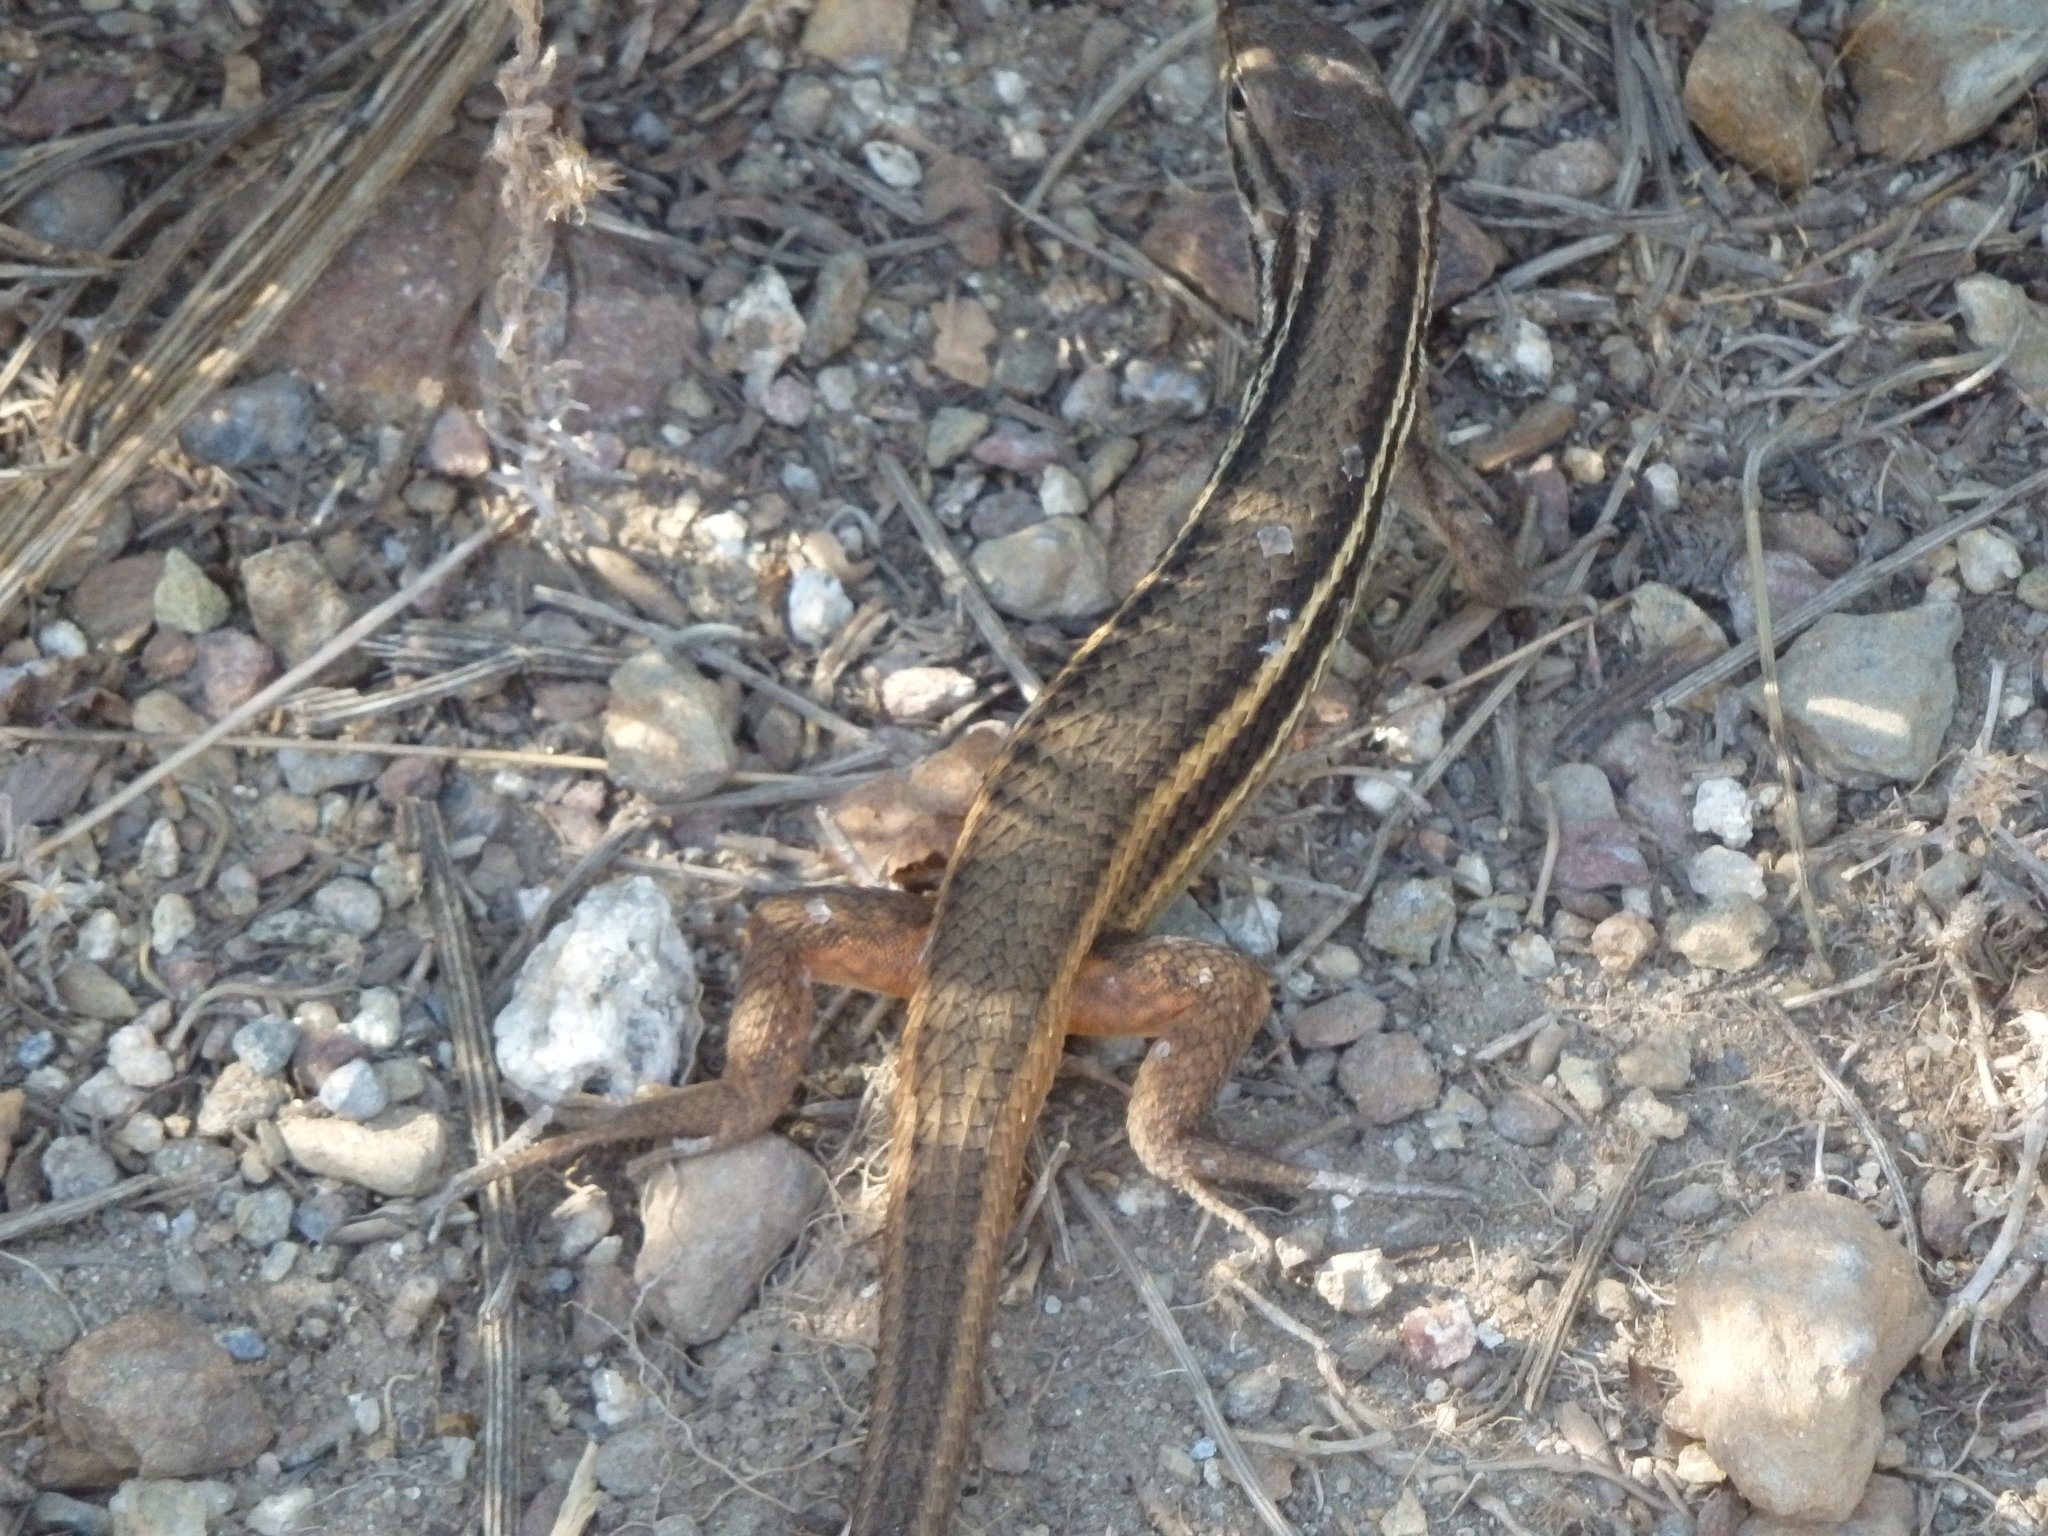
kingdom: Animalia
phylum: Chordata
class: Squamata
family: Lacertidae
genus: Psammodromus
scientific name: Psammodromus algirus
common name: Algerian psammodromus
